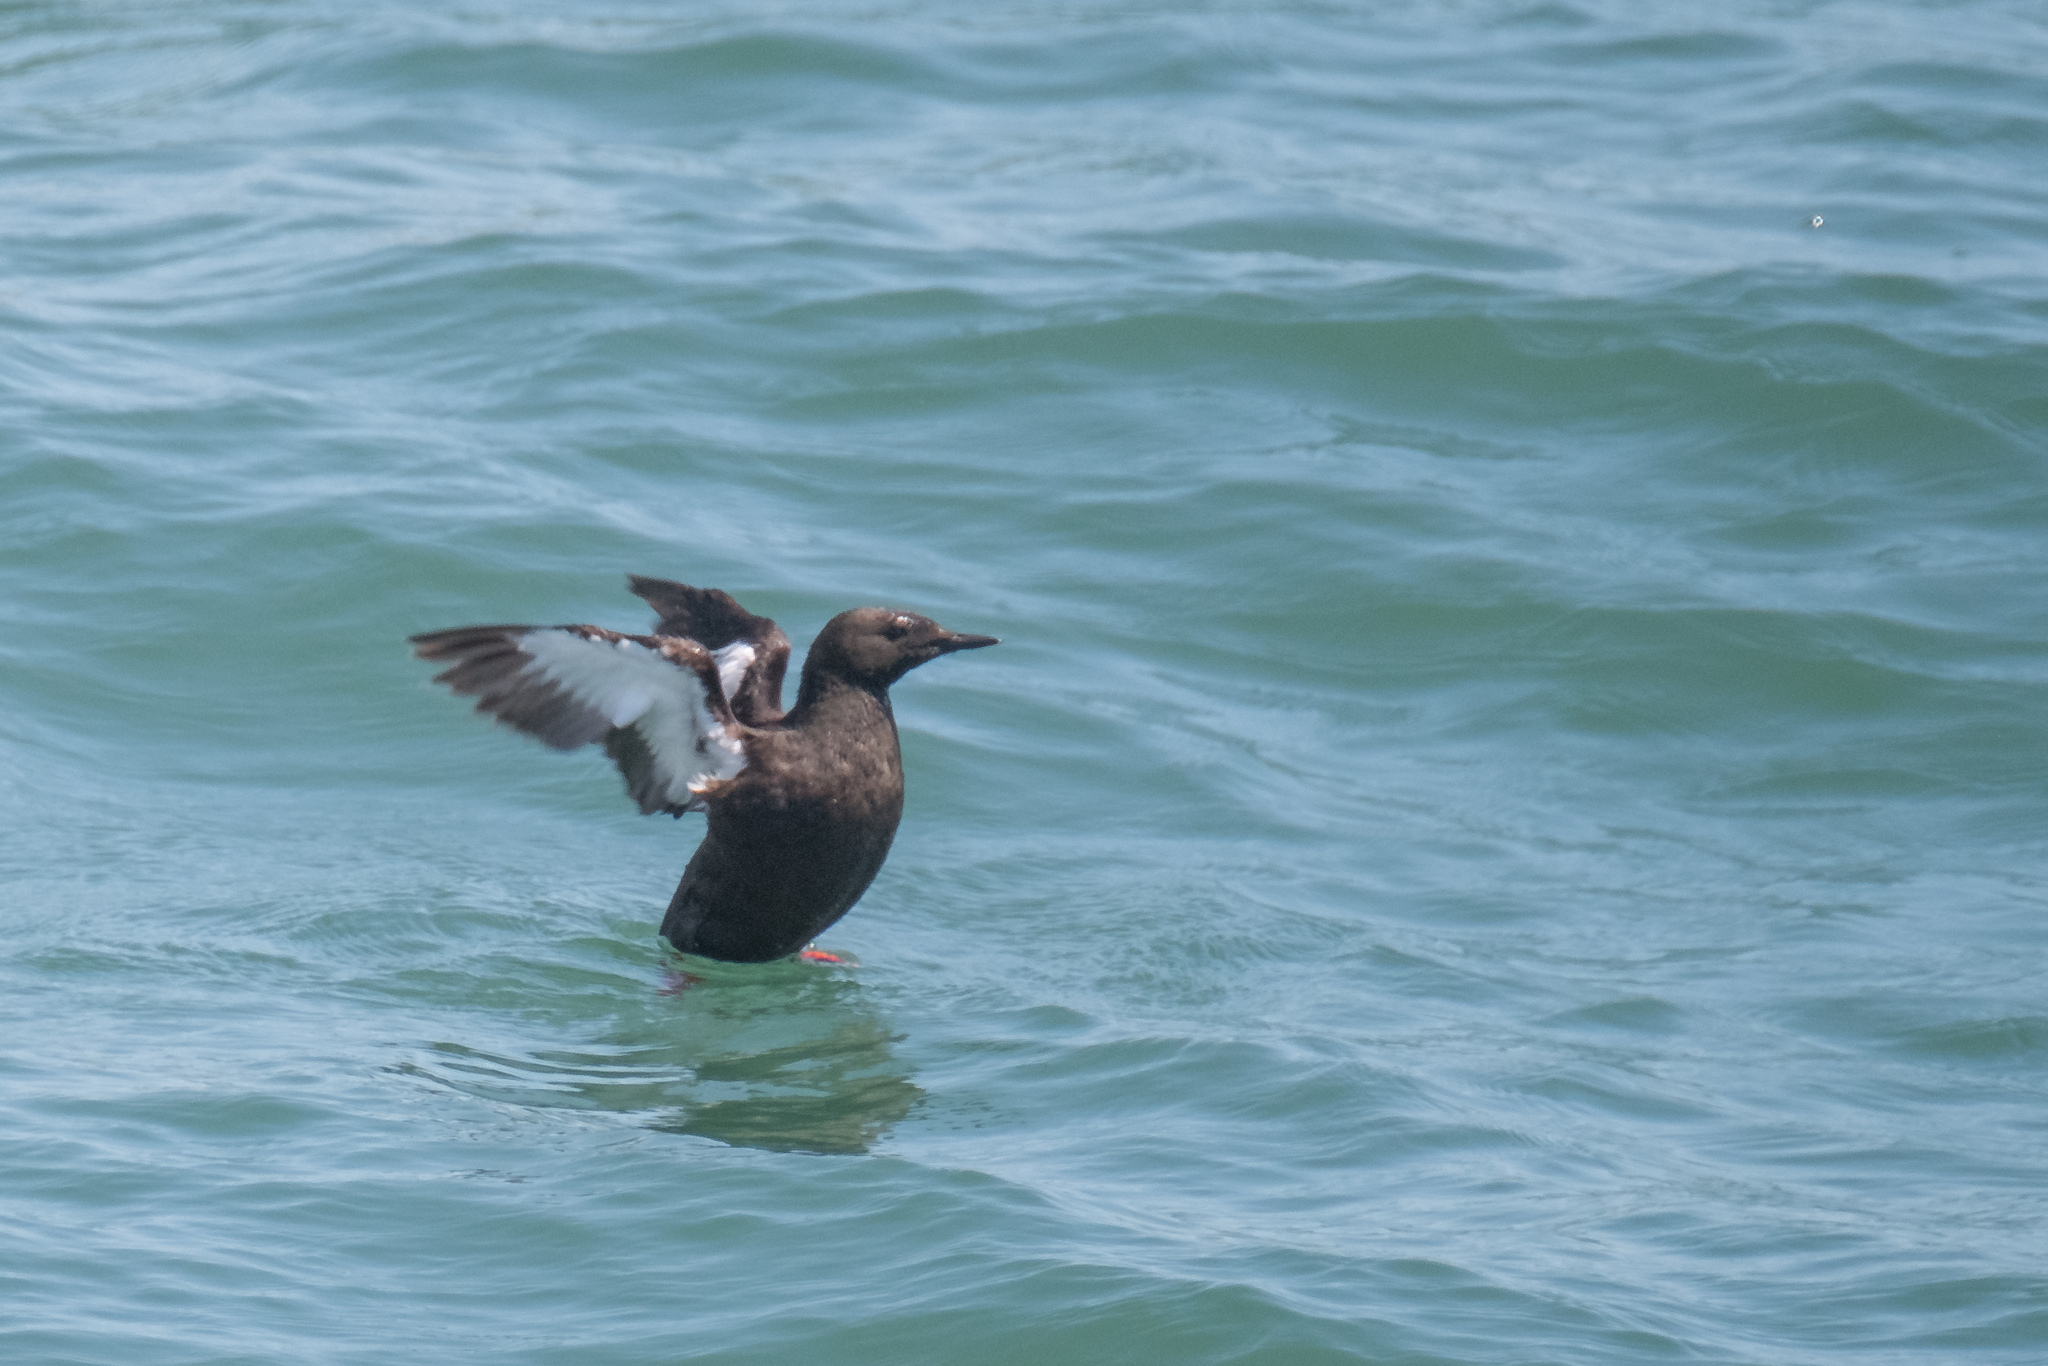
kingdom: Animalia
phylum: Chordata
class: Aves
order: Charadriiformes
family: Alcidae
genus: Cepphus
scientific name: Cepphus grylle
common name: Black guillemot
